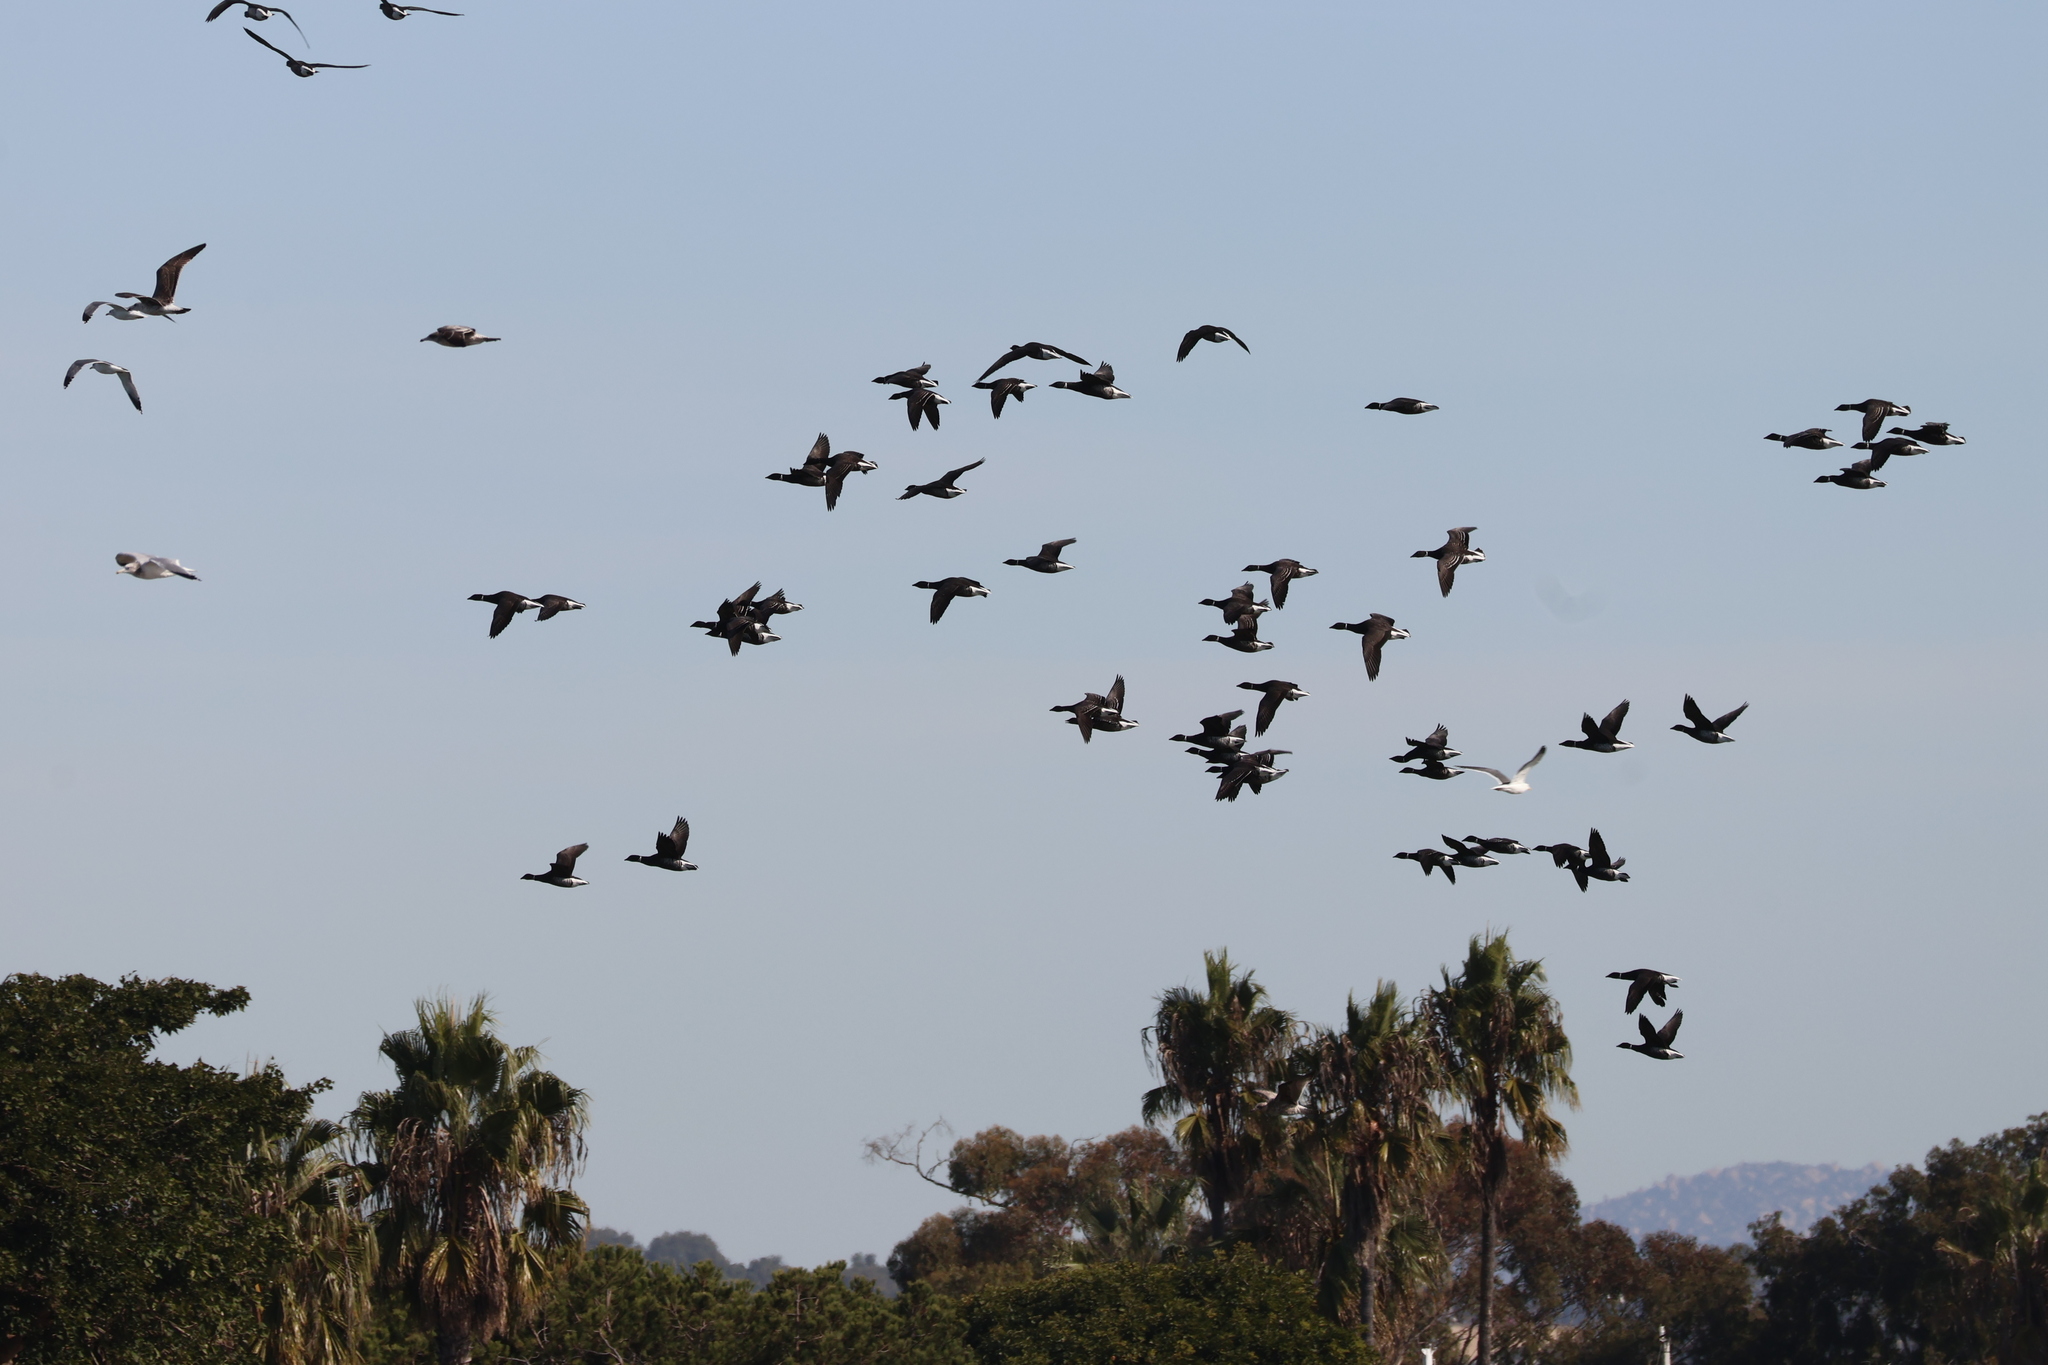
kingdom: Animalia
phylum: Chordata
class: Aves
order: Anseriformes
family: Anatidae
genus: Branta
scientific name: Branta bernicla
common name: Brant goose
